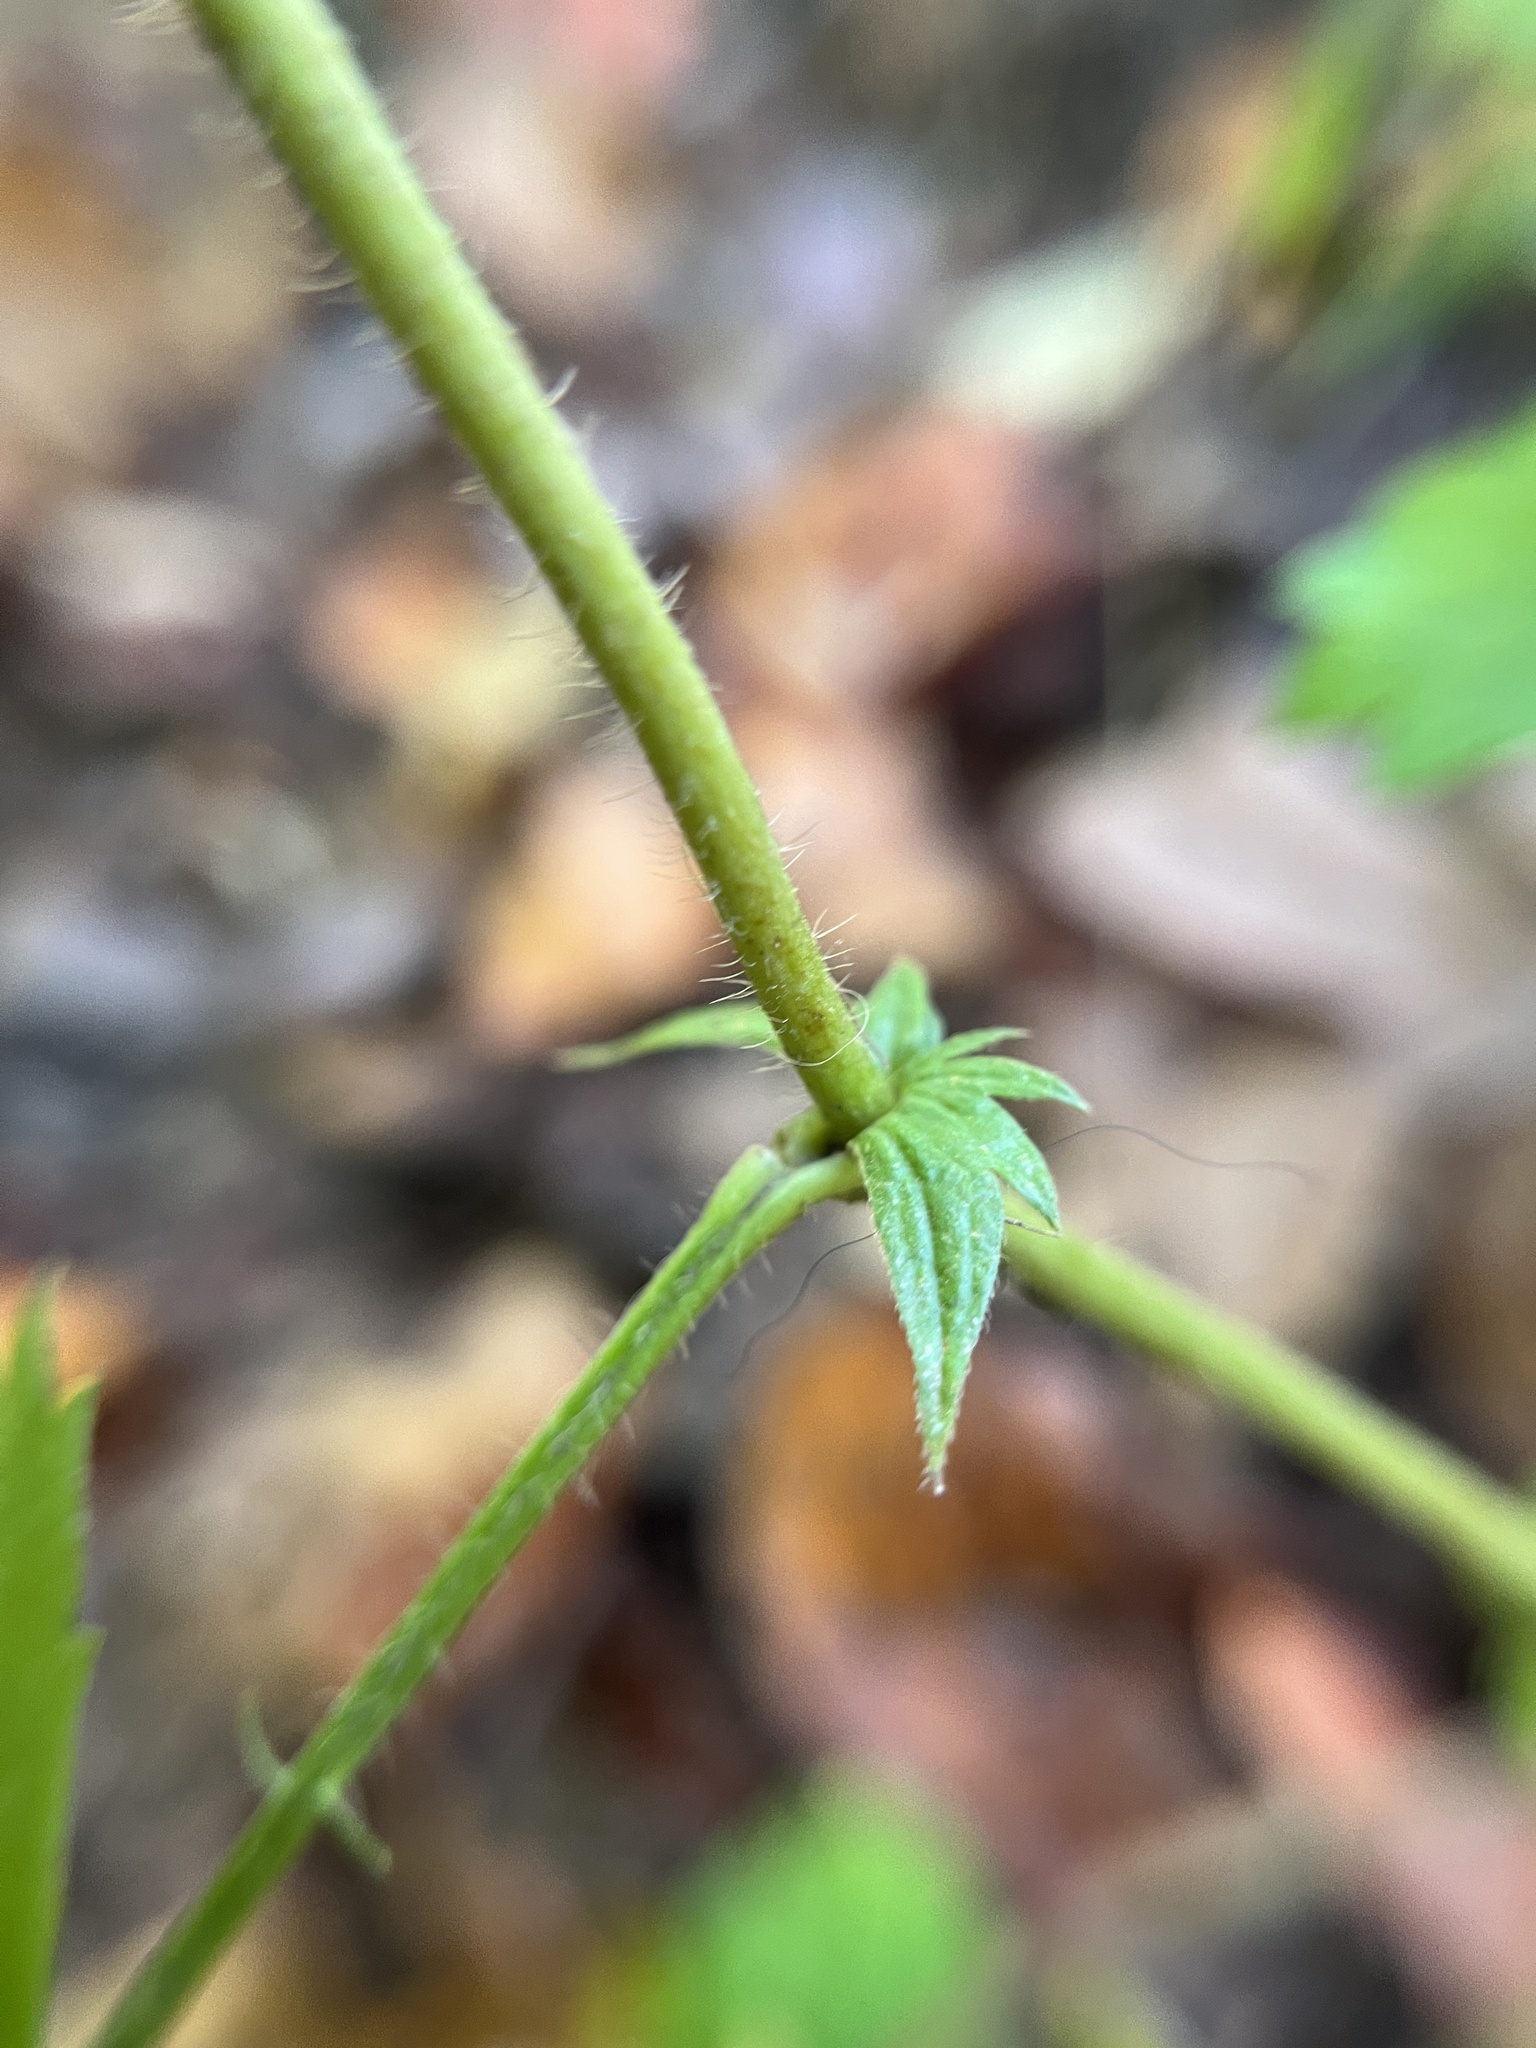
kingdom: Plantae
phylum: Tracheophyta
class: Magnoliopsida
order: Rosales
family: Rosaceae
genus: Agrimonia
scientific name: Agrimonia pubescens
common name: Downy agrimony
